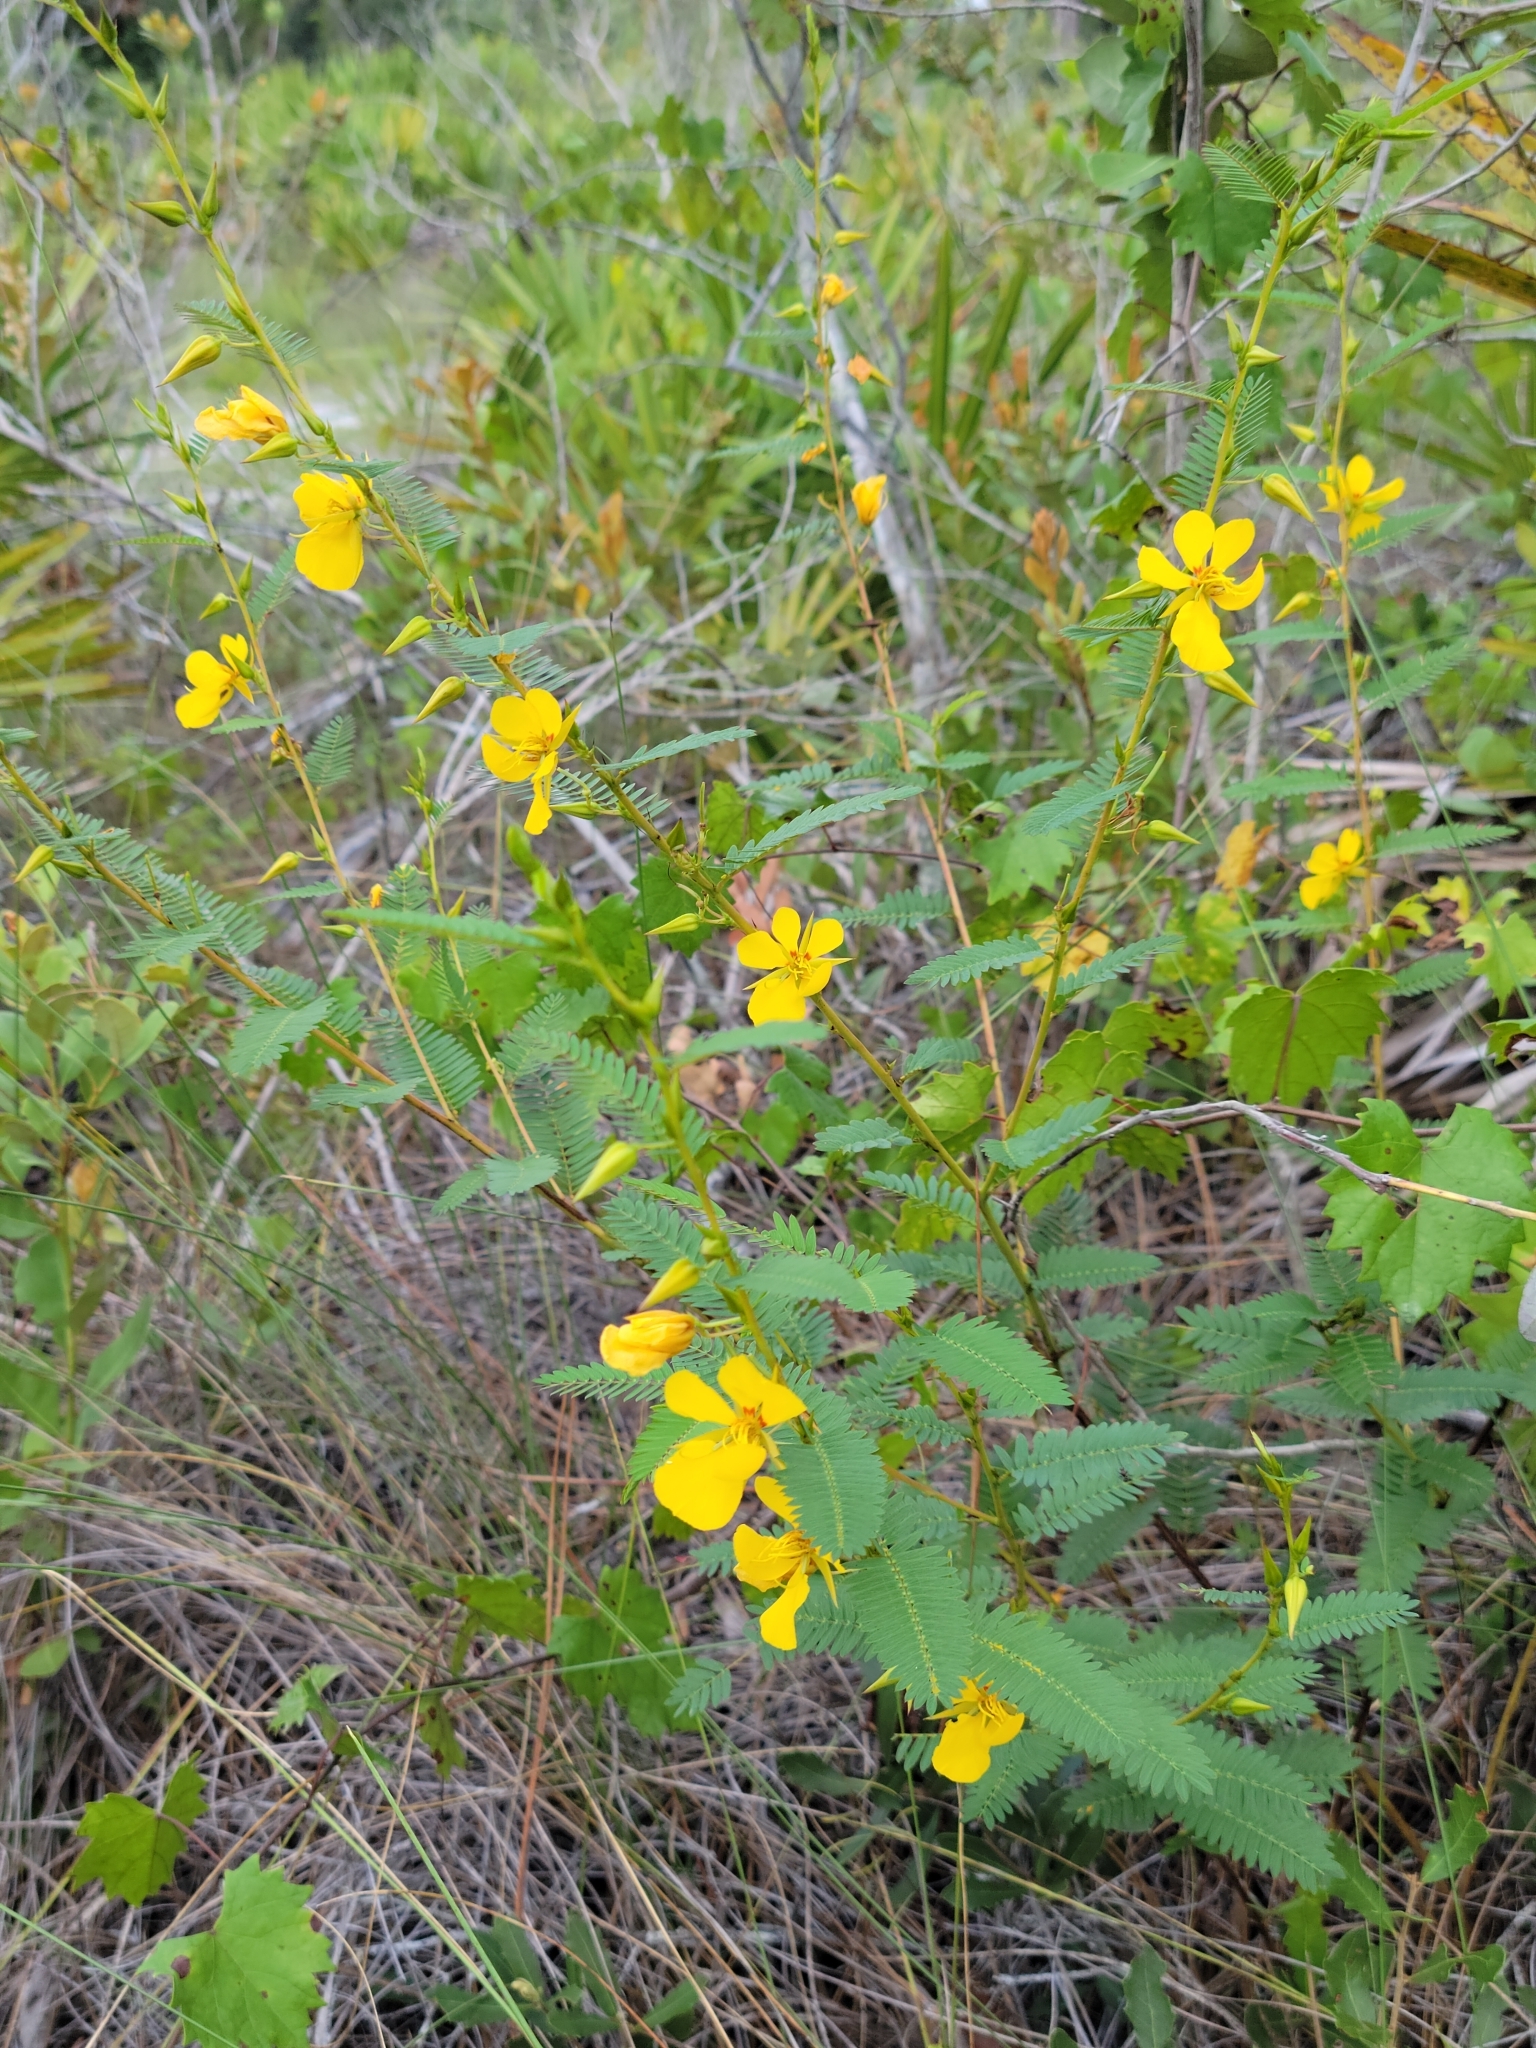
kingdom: Plantae
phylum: Tracheophyta
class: Magnoliopsida
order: Fabales
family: Fabaceae
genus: Chamaecrista
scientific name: Chamaecrista fasciculata
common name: Golden cassia
